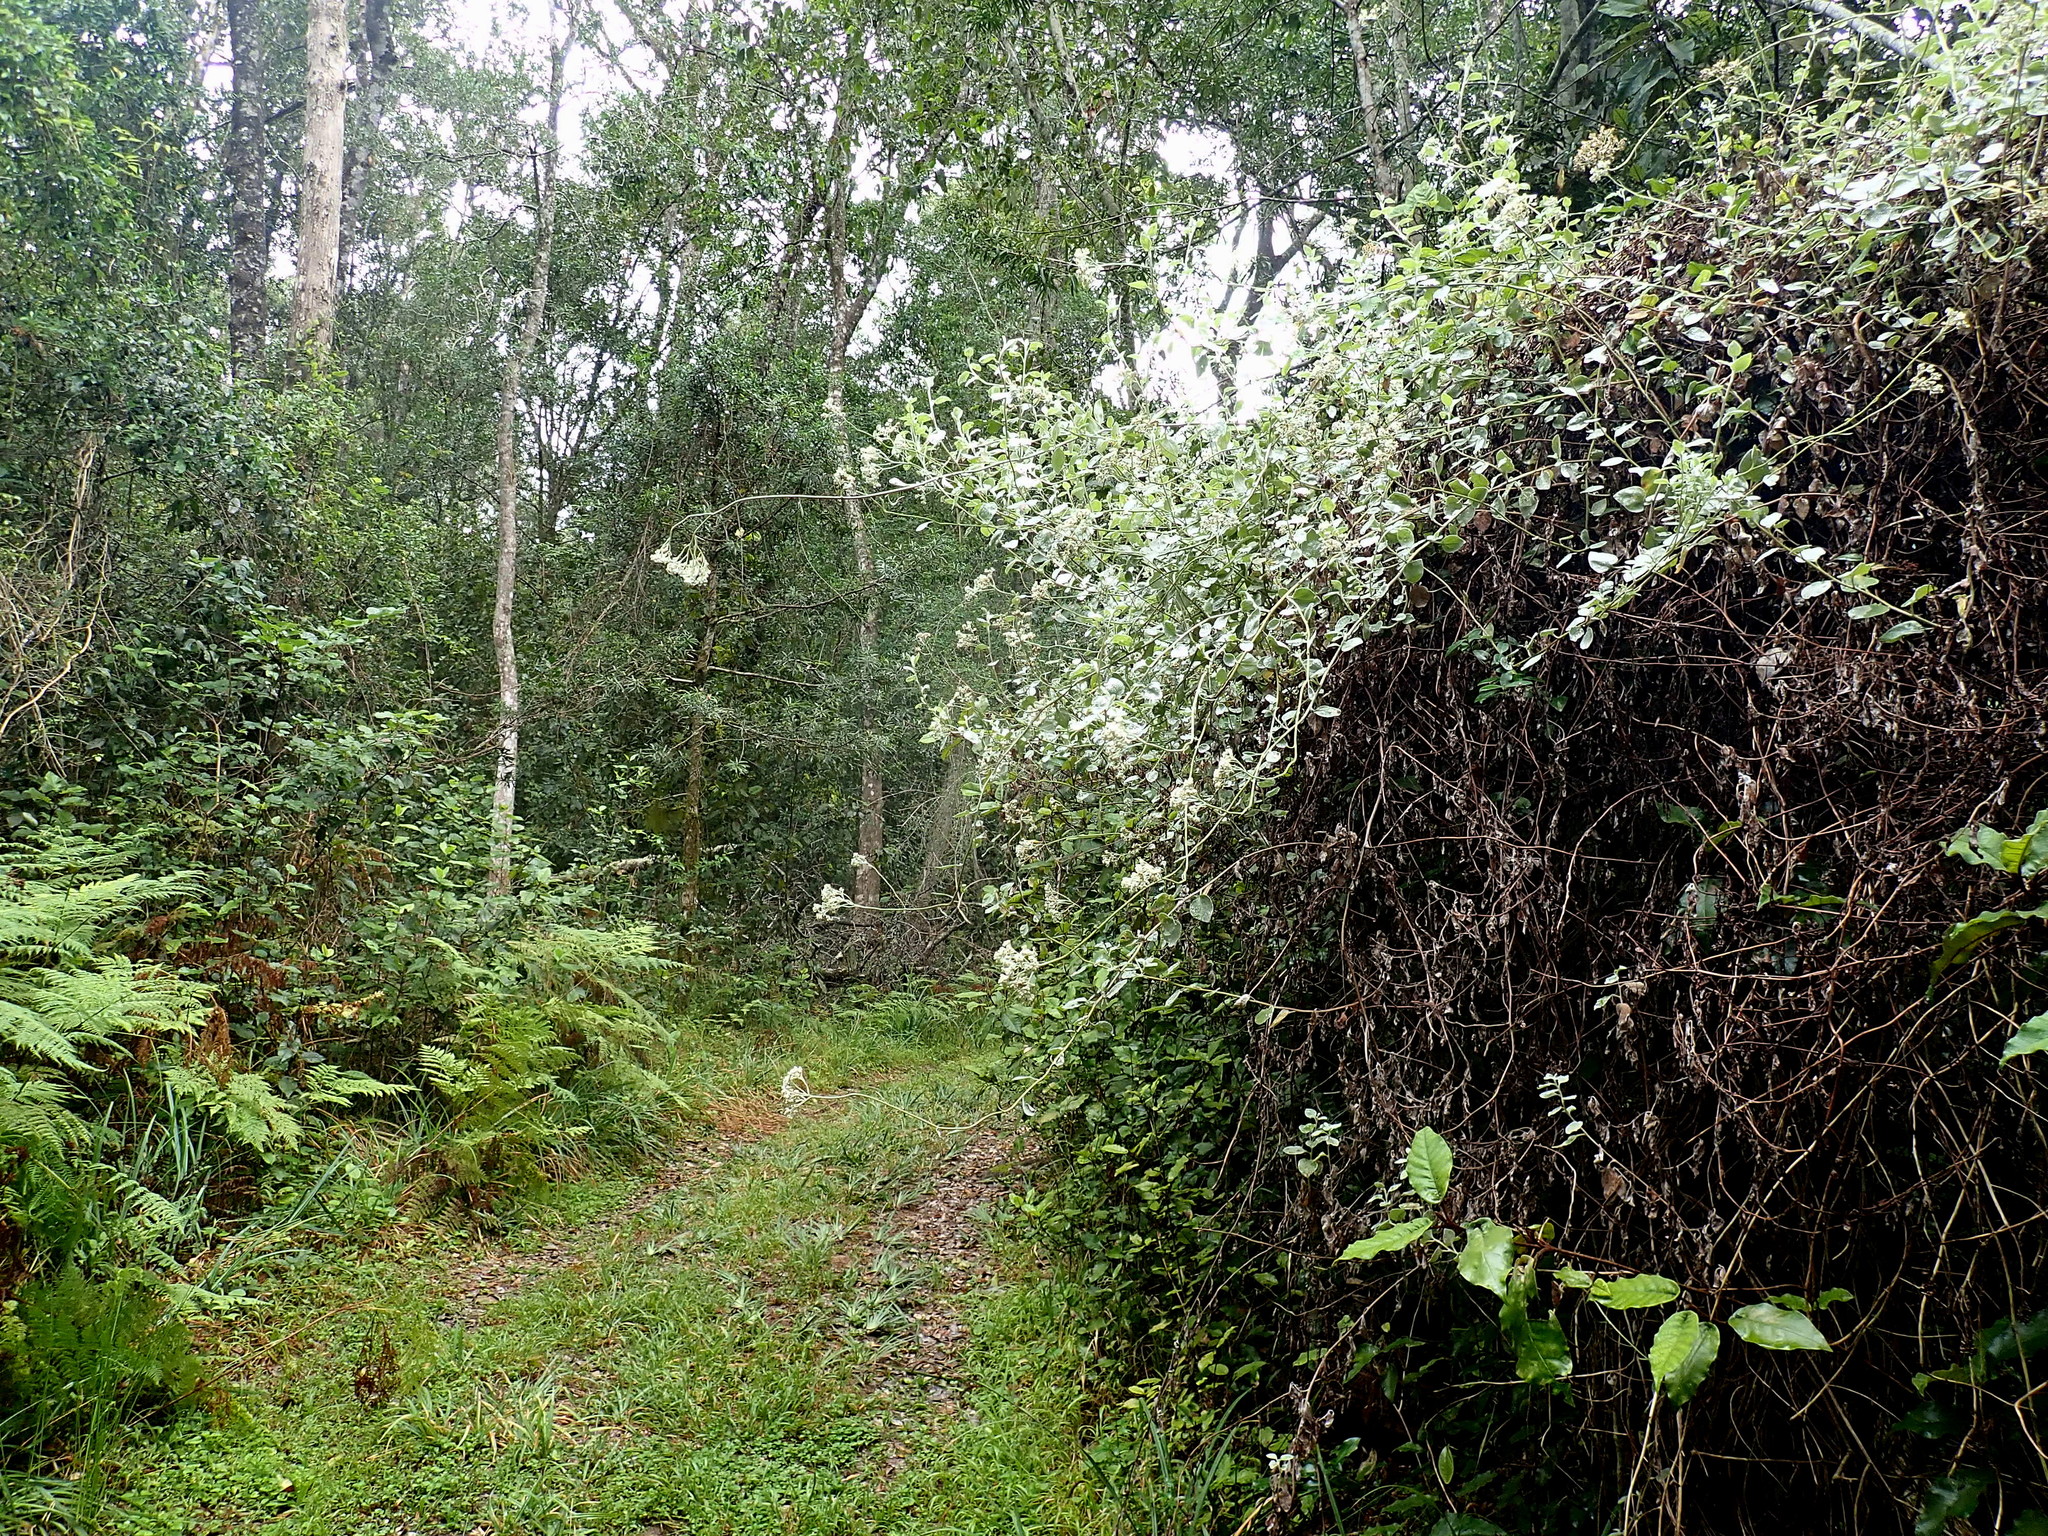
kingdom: Plantae
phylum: Tracheophyta
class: Magnoliopsida
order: Asterales
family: Asteraceae
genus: Helichrysum
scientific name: Helichrysum petiolare
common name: Licorice-plant
